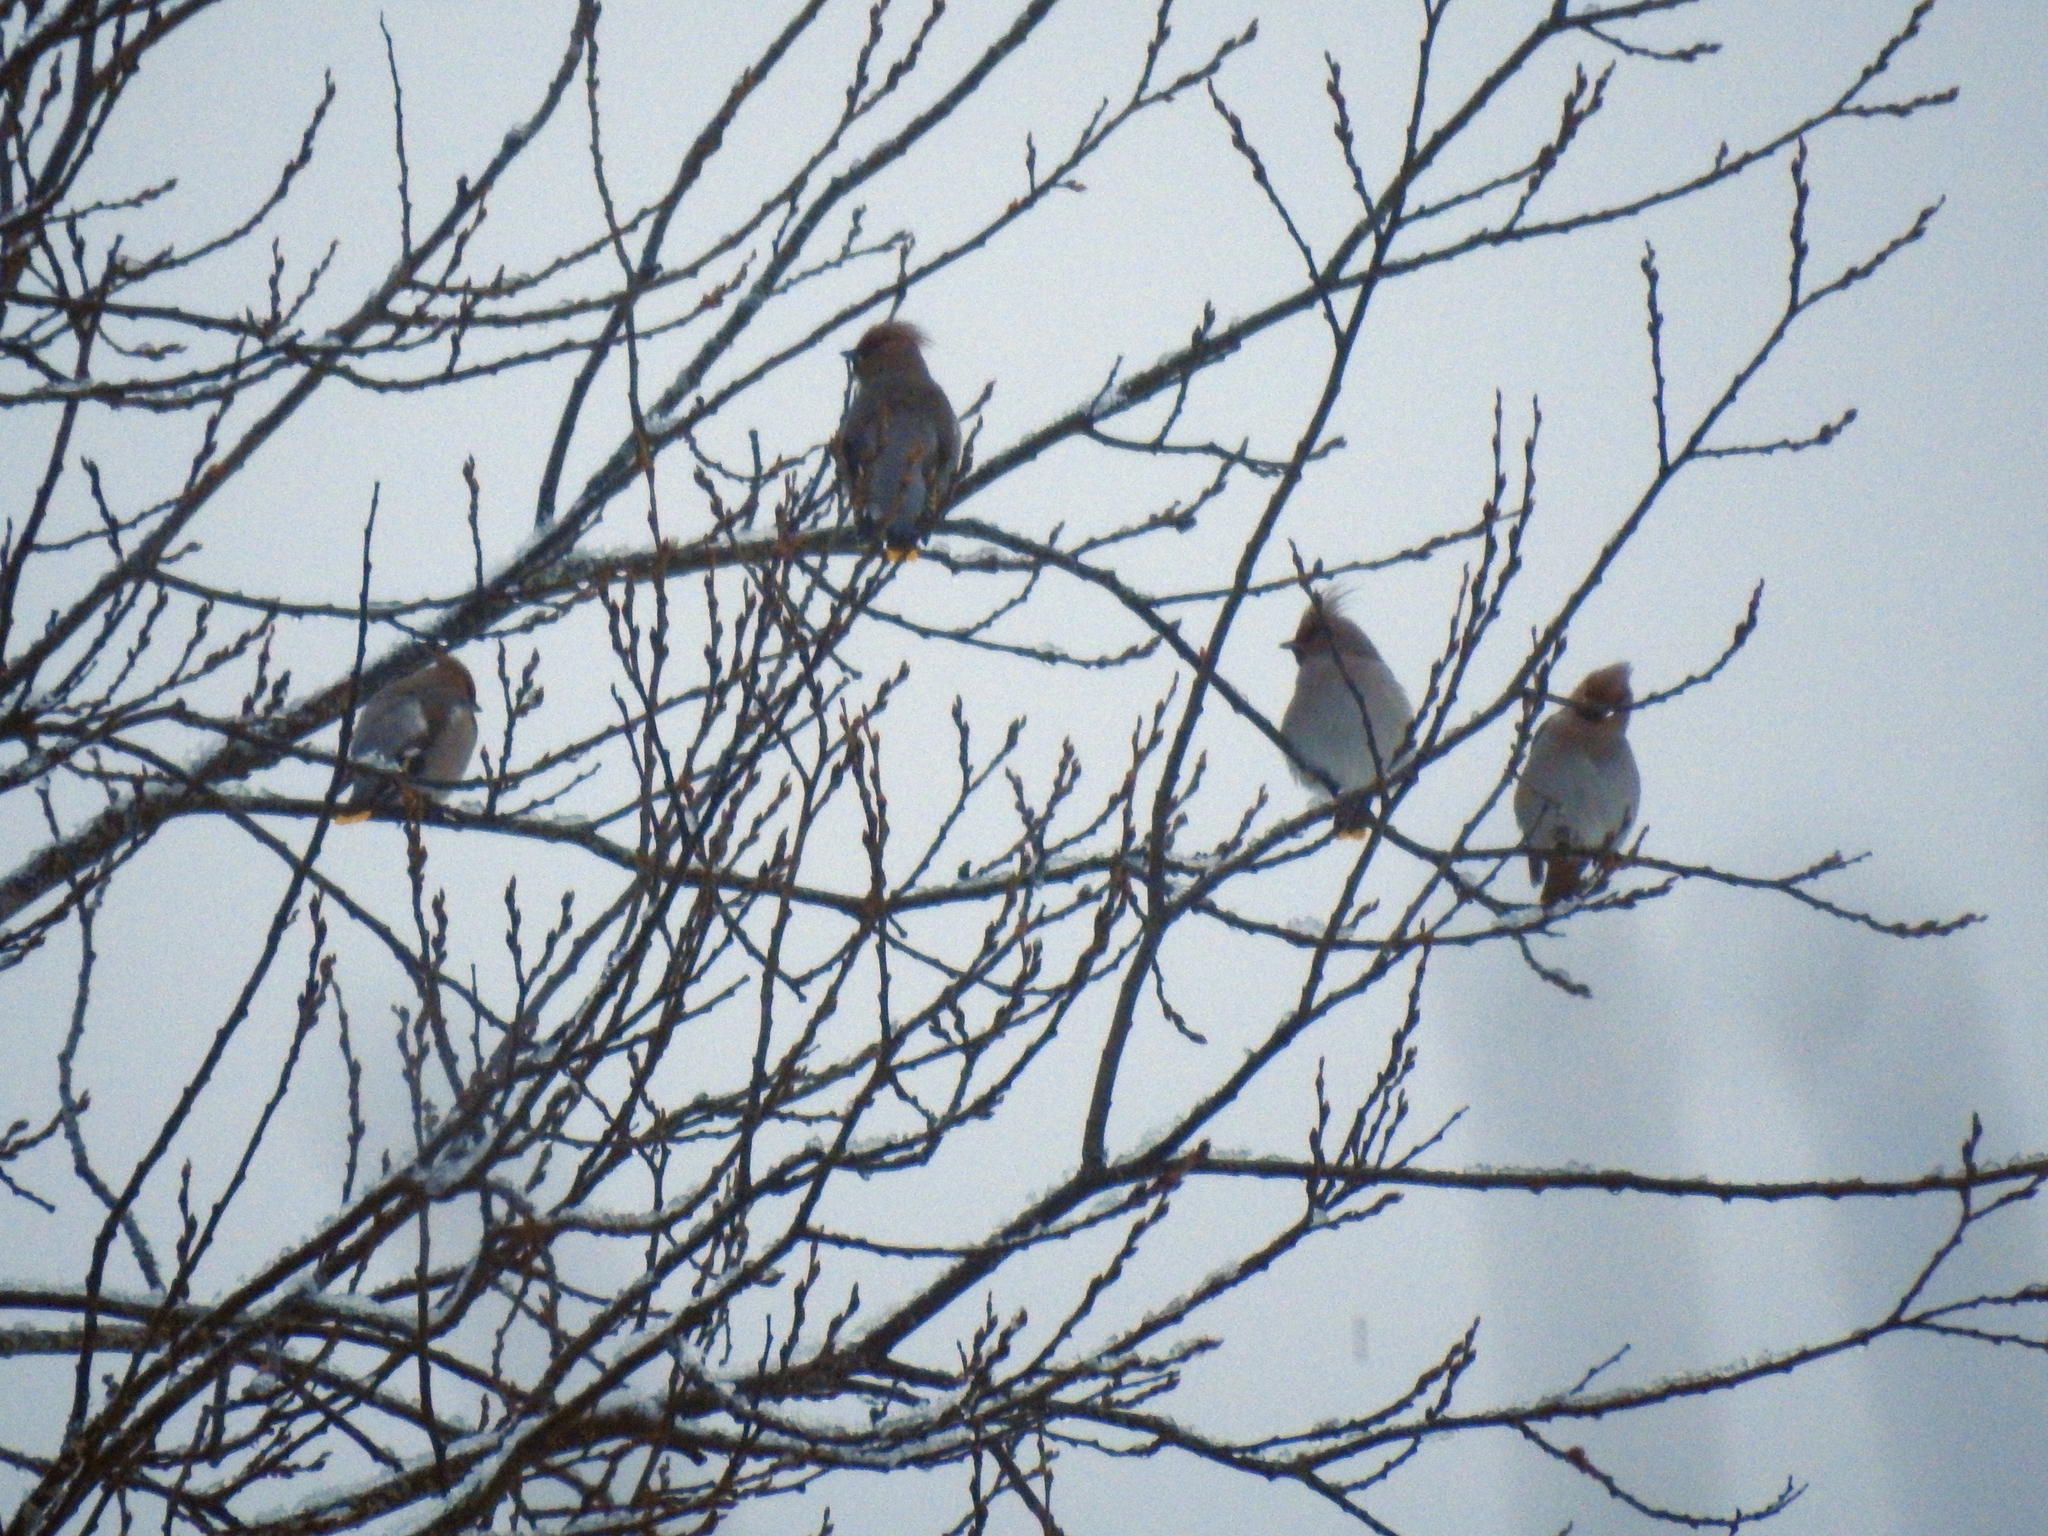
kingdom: Animalia
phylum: Chordata
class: Aves
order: Passeriformes
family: Bombycillidae
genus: Bombycilla
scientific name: Bombycilla garrulus
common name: Bohemian waxwing
